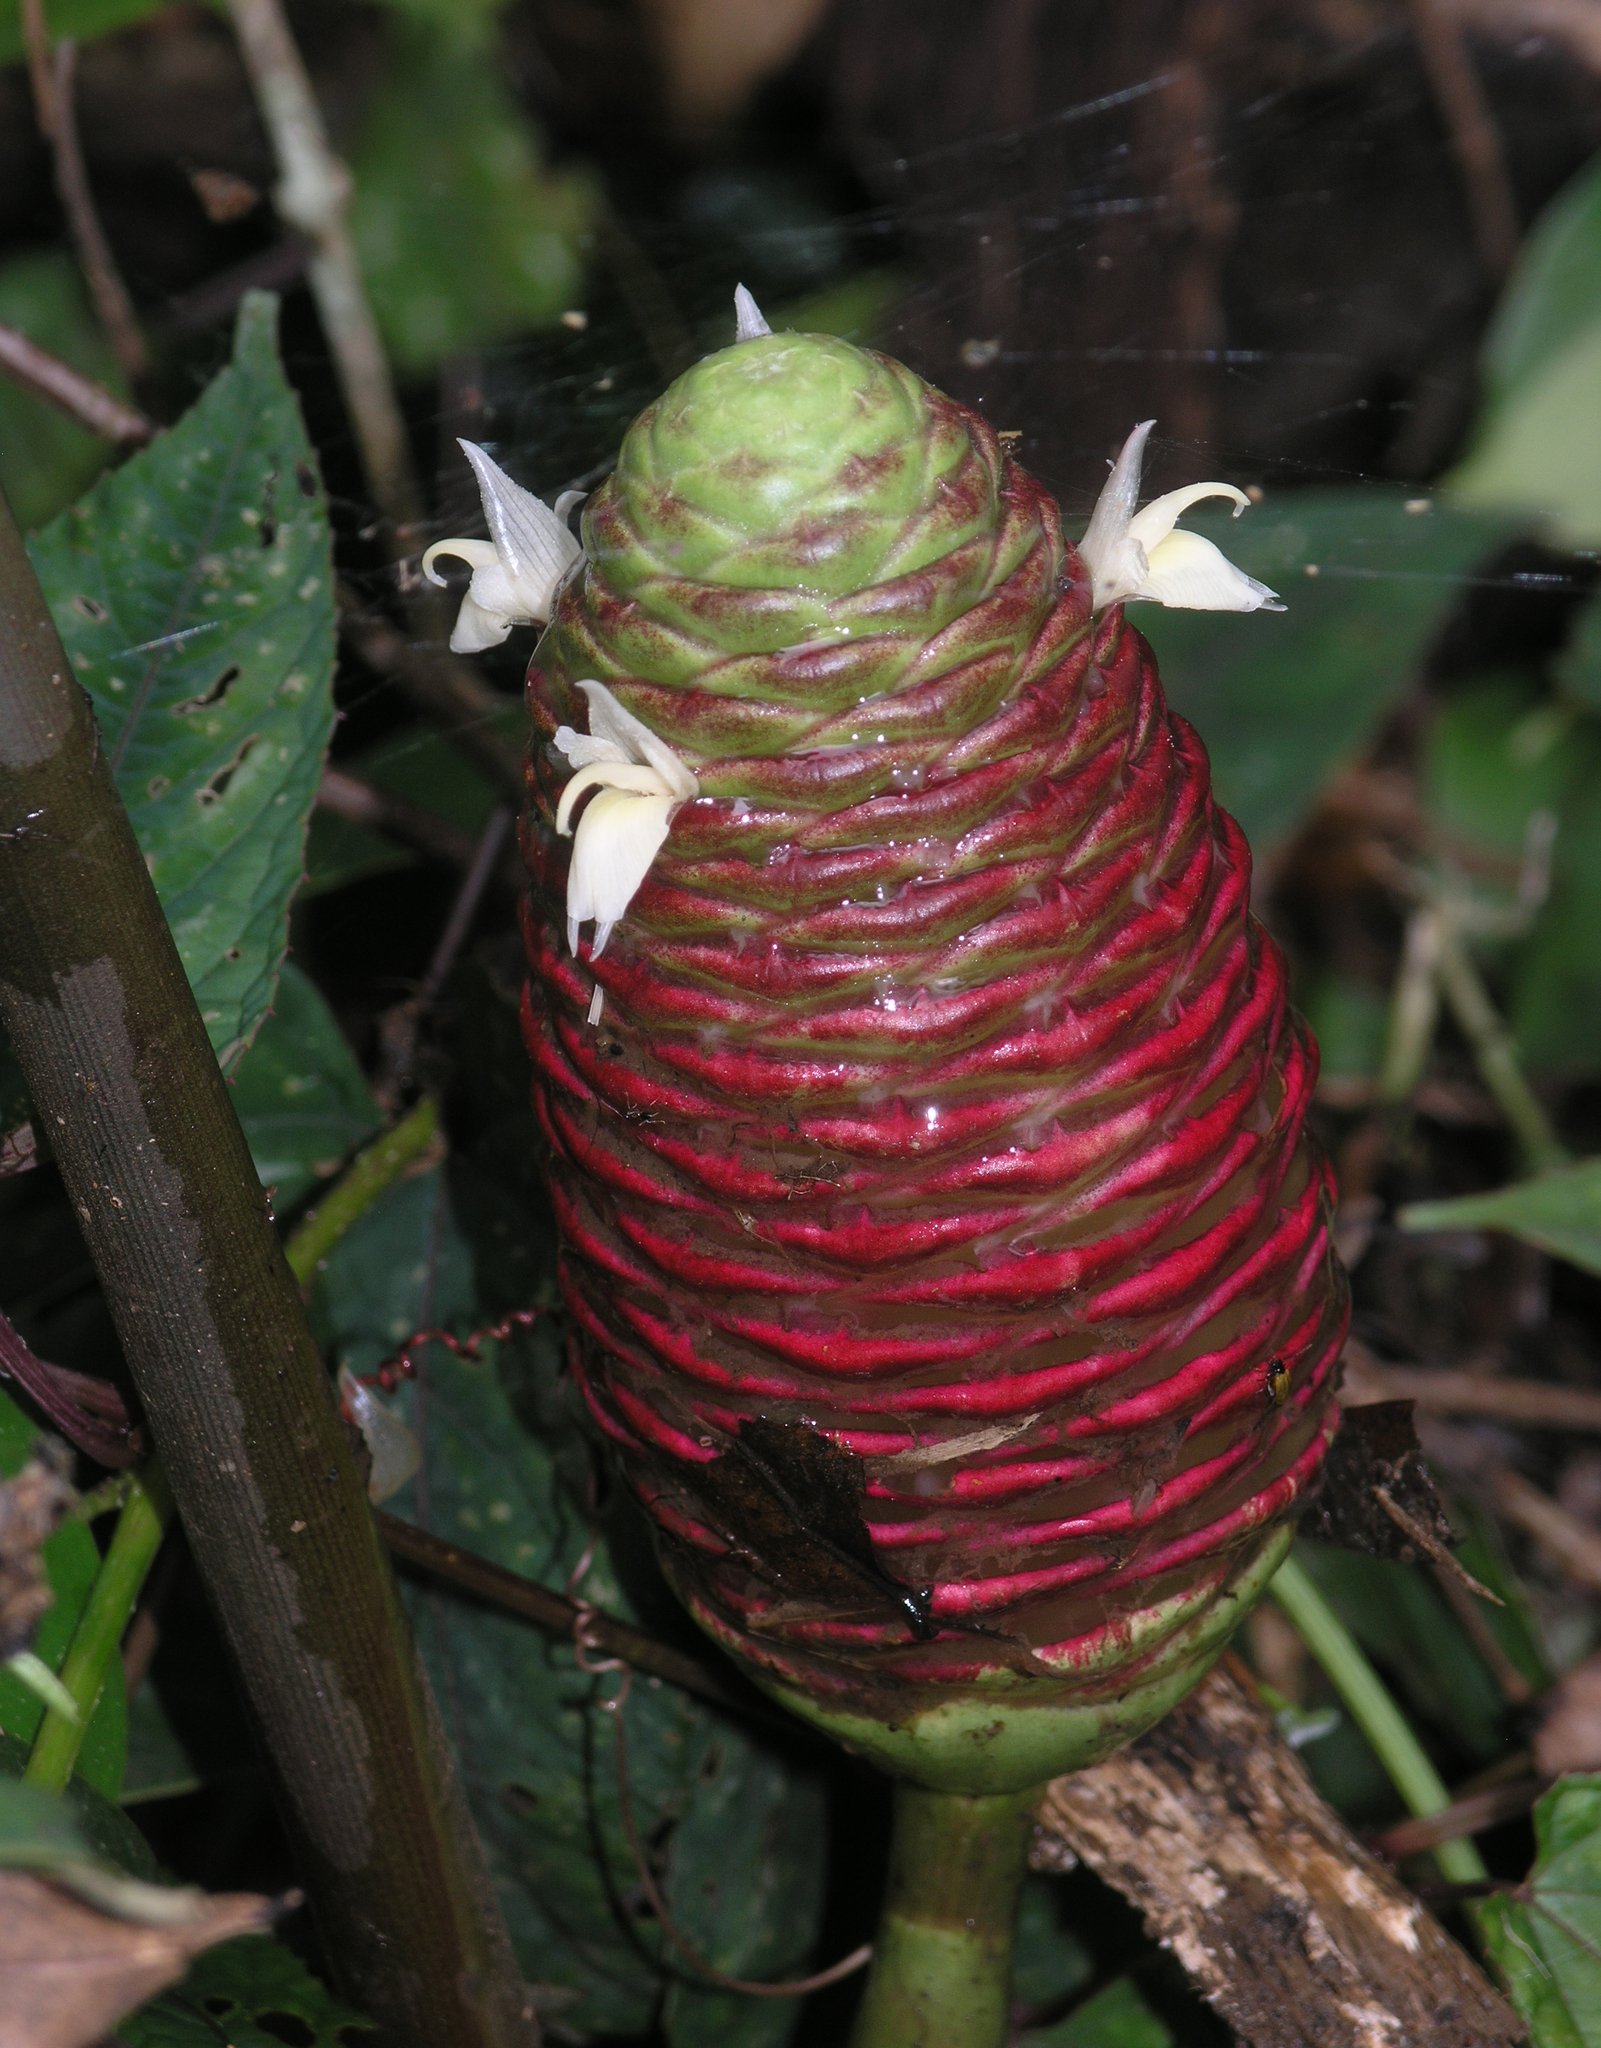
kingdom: Plantae
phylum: Tracheophyta
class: Liliopsida
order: Zingiberales
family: Zingiberaceae
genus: Zingiber
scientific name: Zingiber zerumbet
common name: Bitter ginger
